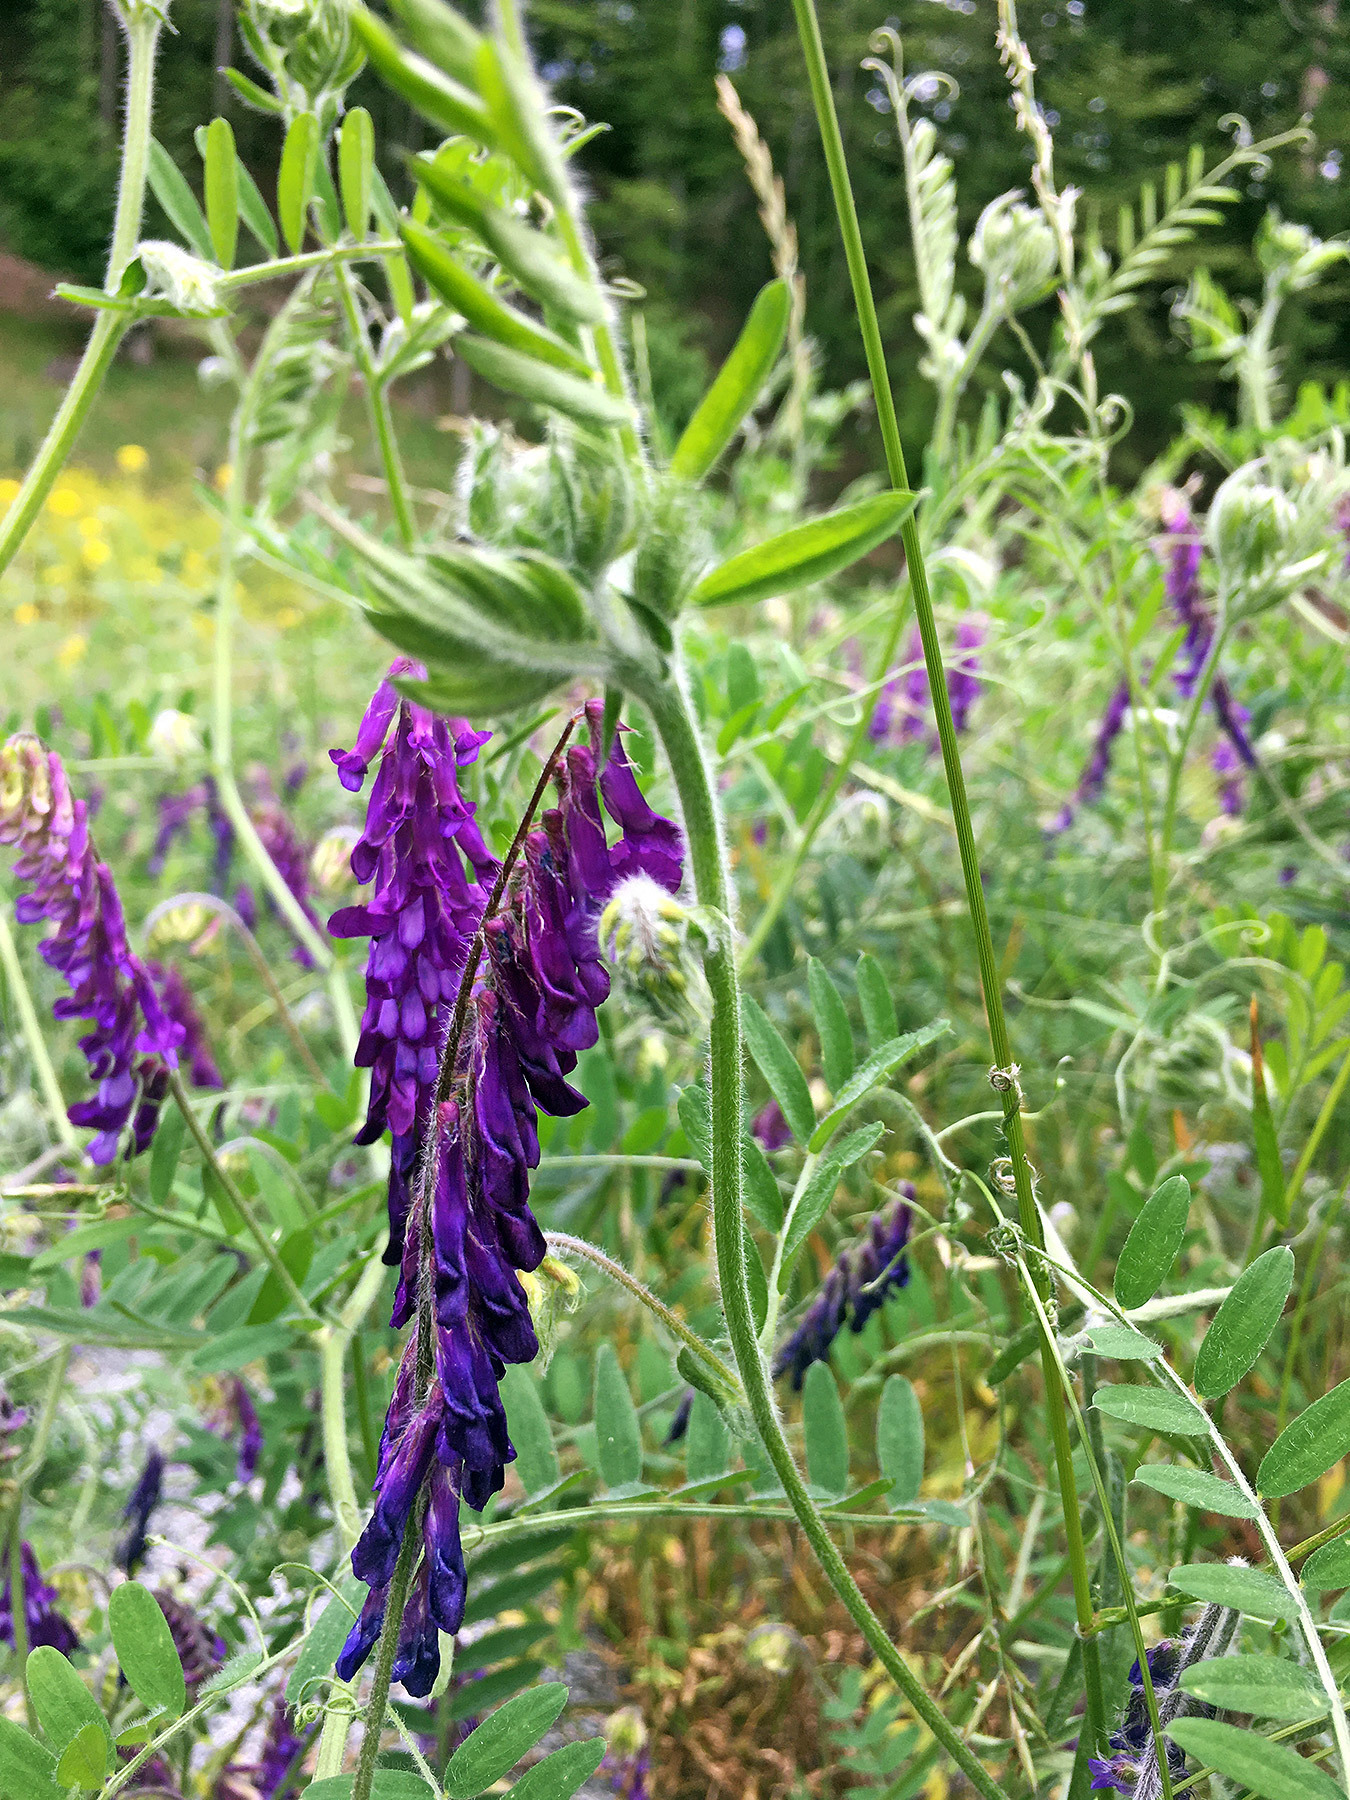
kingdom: Plantae
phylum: Tracheophyta
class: Magnoliopsida
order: Fabales
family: Fabaceae
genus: Vicia
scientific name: Vicia villosa
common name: Fodder vetch
